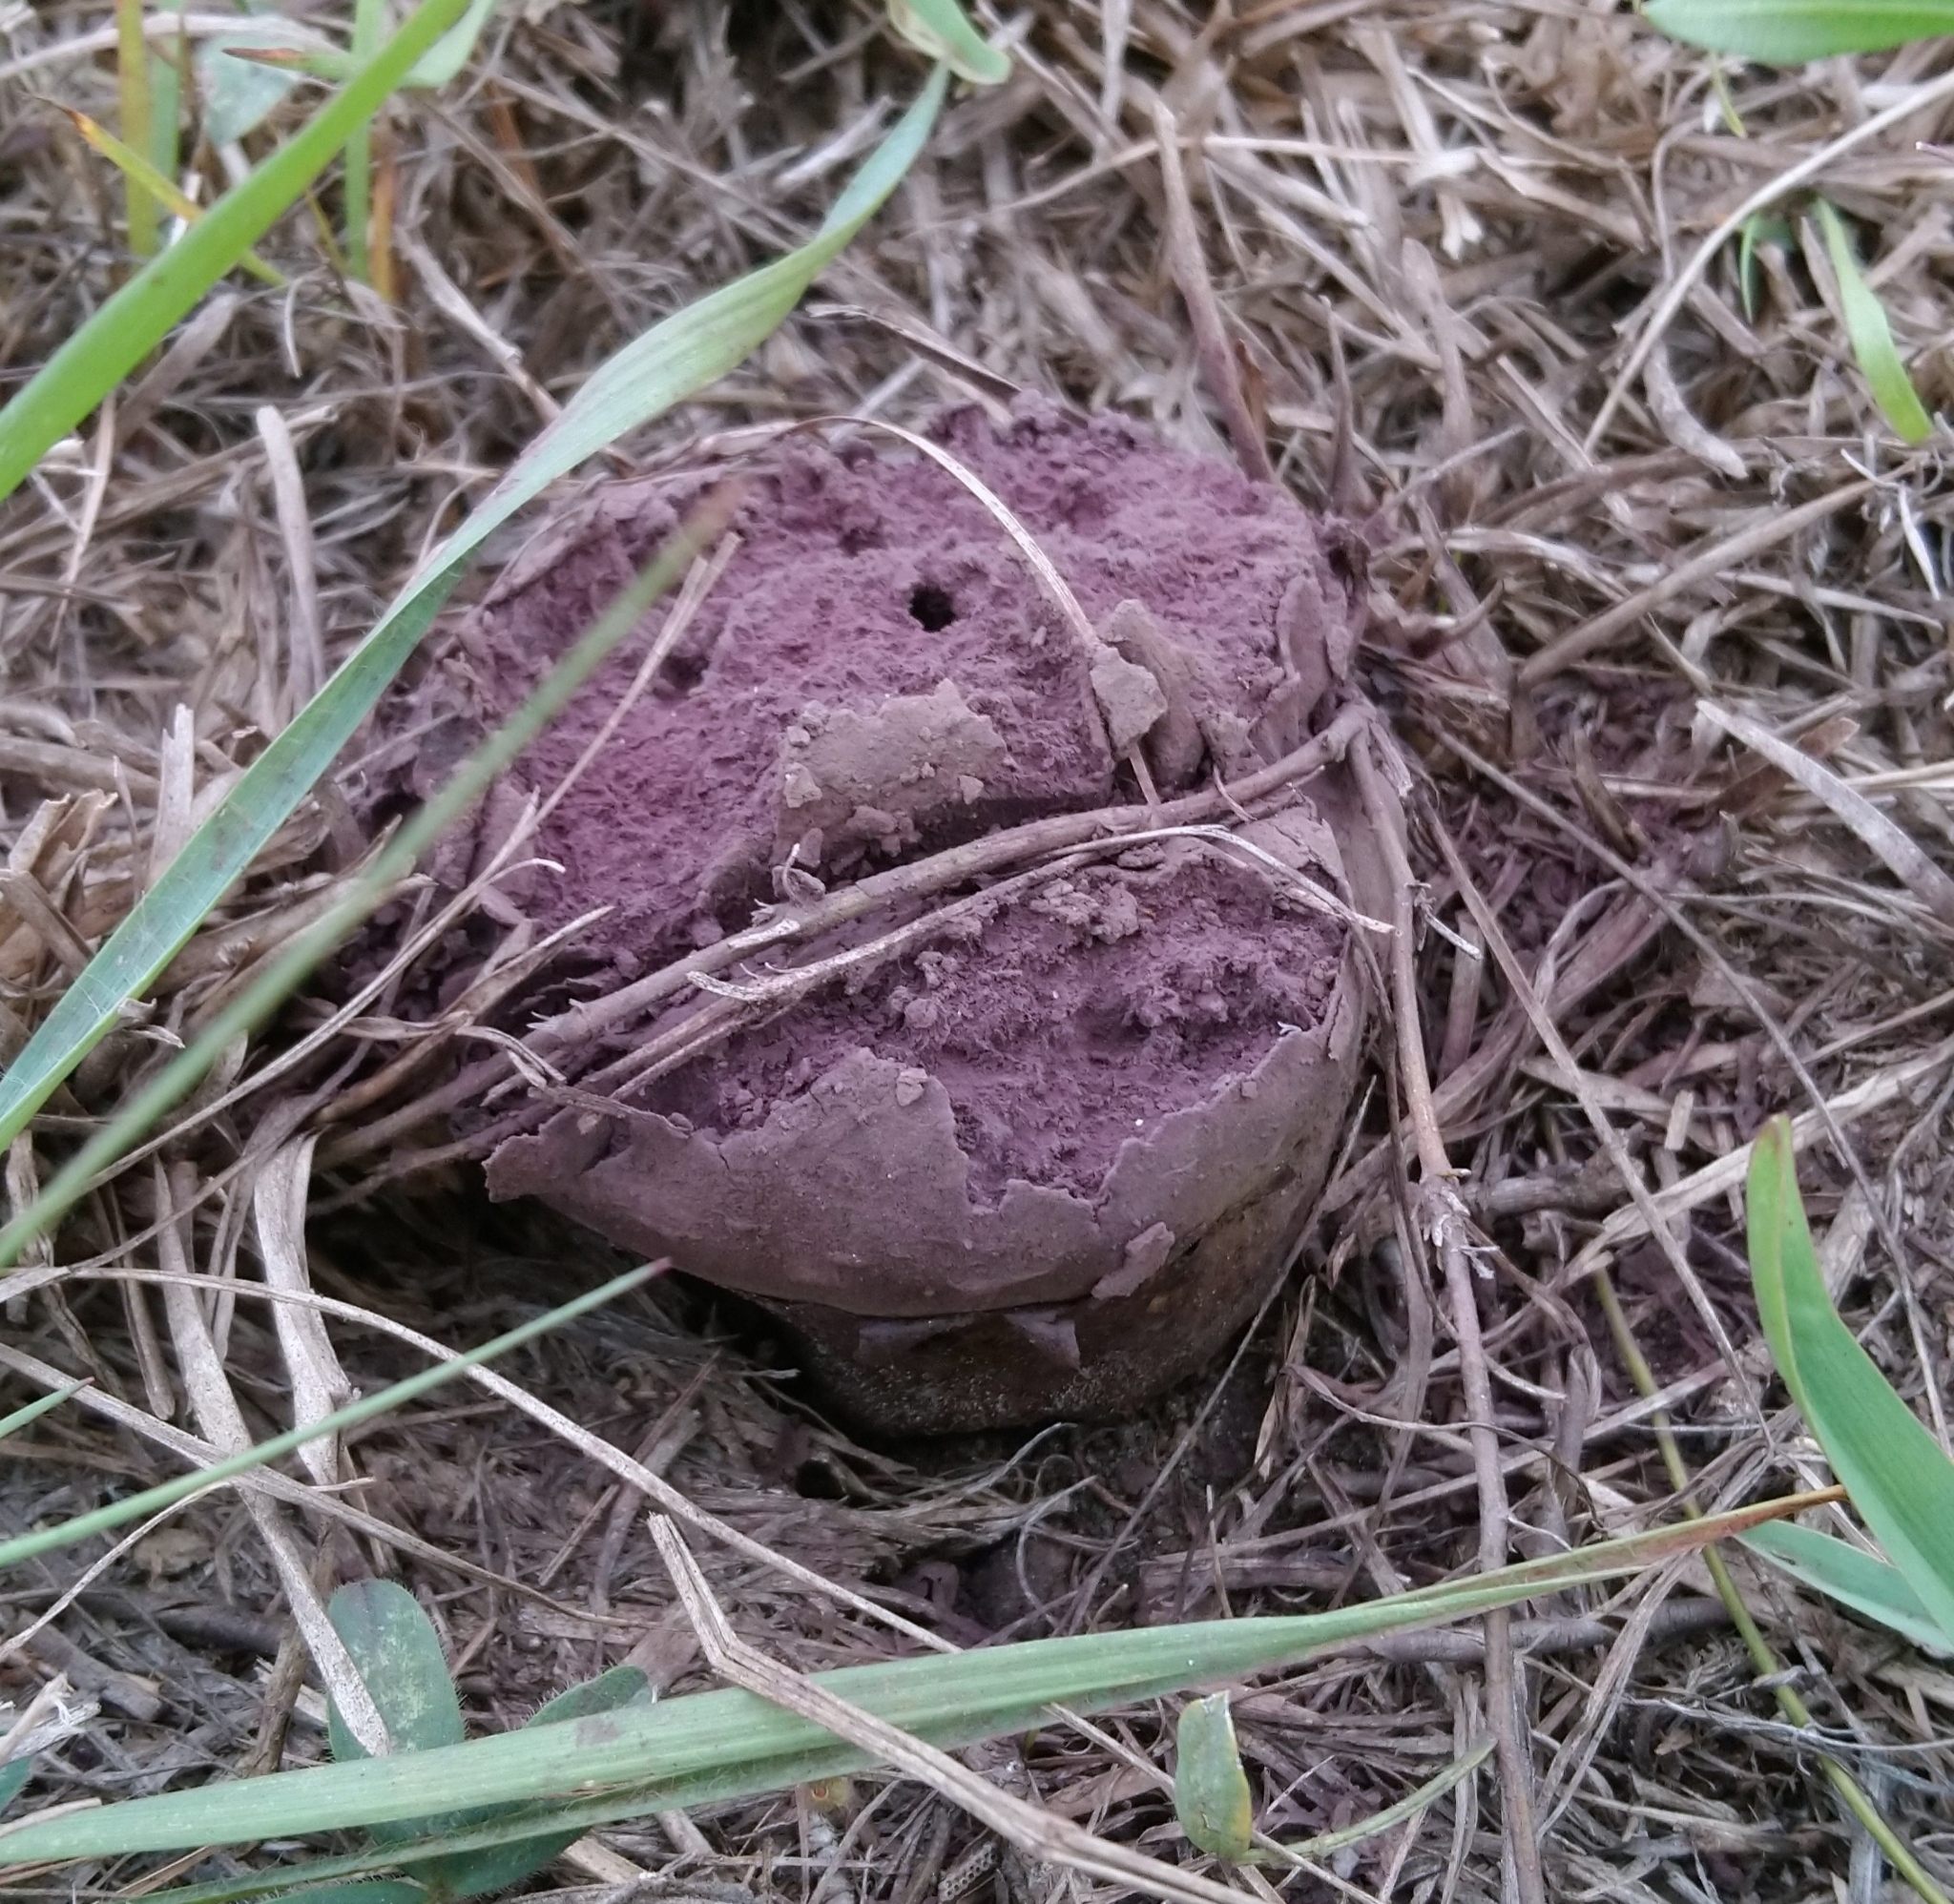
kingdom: Fungi
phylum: Basidiomycota
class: Agaricomycetes
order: Agaricales
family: Lycoperdaceae
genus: Calvatia
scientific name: Calvatia lilacina
